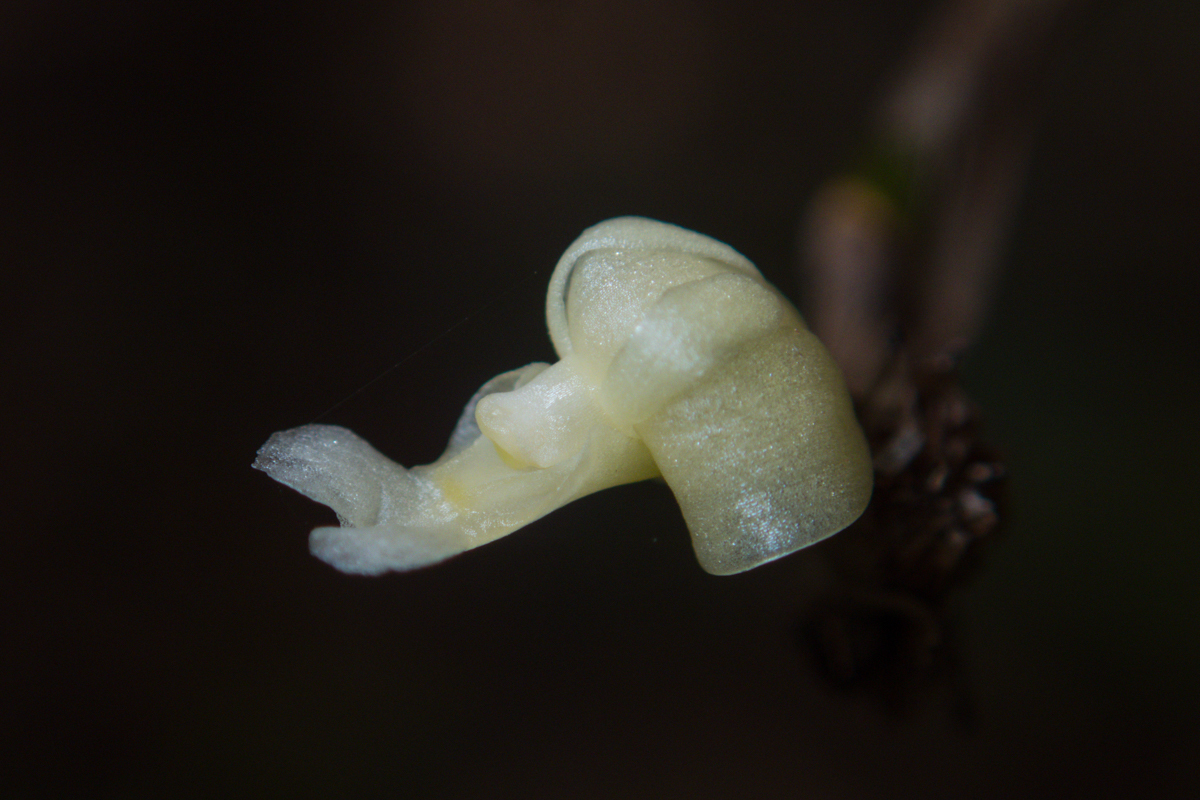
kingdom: Plantae
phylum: Tracheophyta
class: Liliopsida
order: Asparagales
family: Orchidaceae
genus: Dendrobium
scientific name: Dendrobium aloifolium
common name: Aloe-like dendrobium
